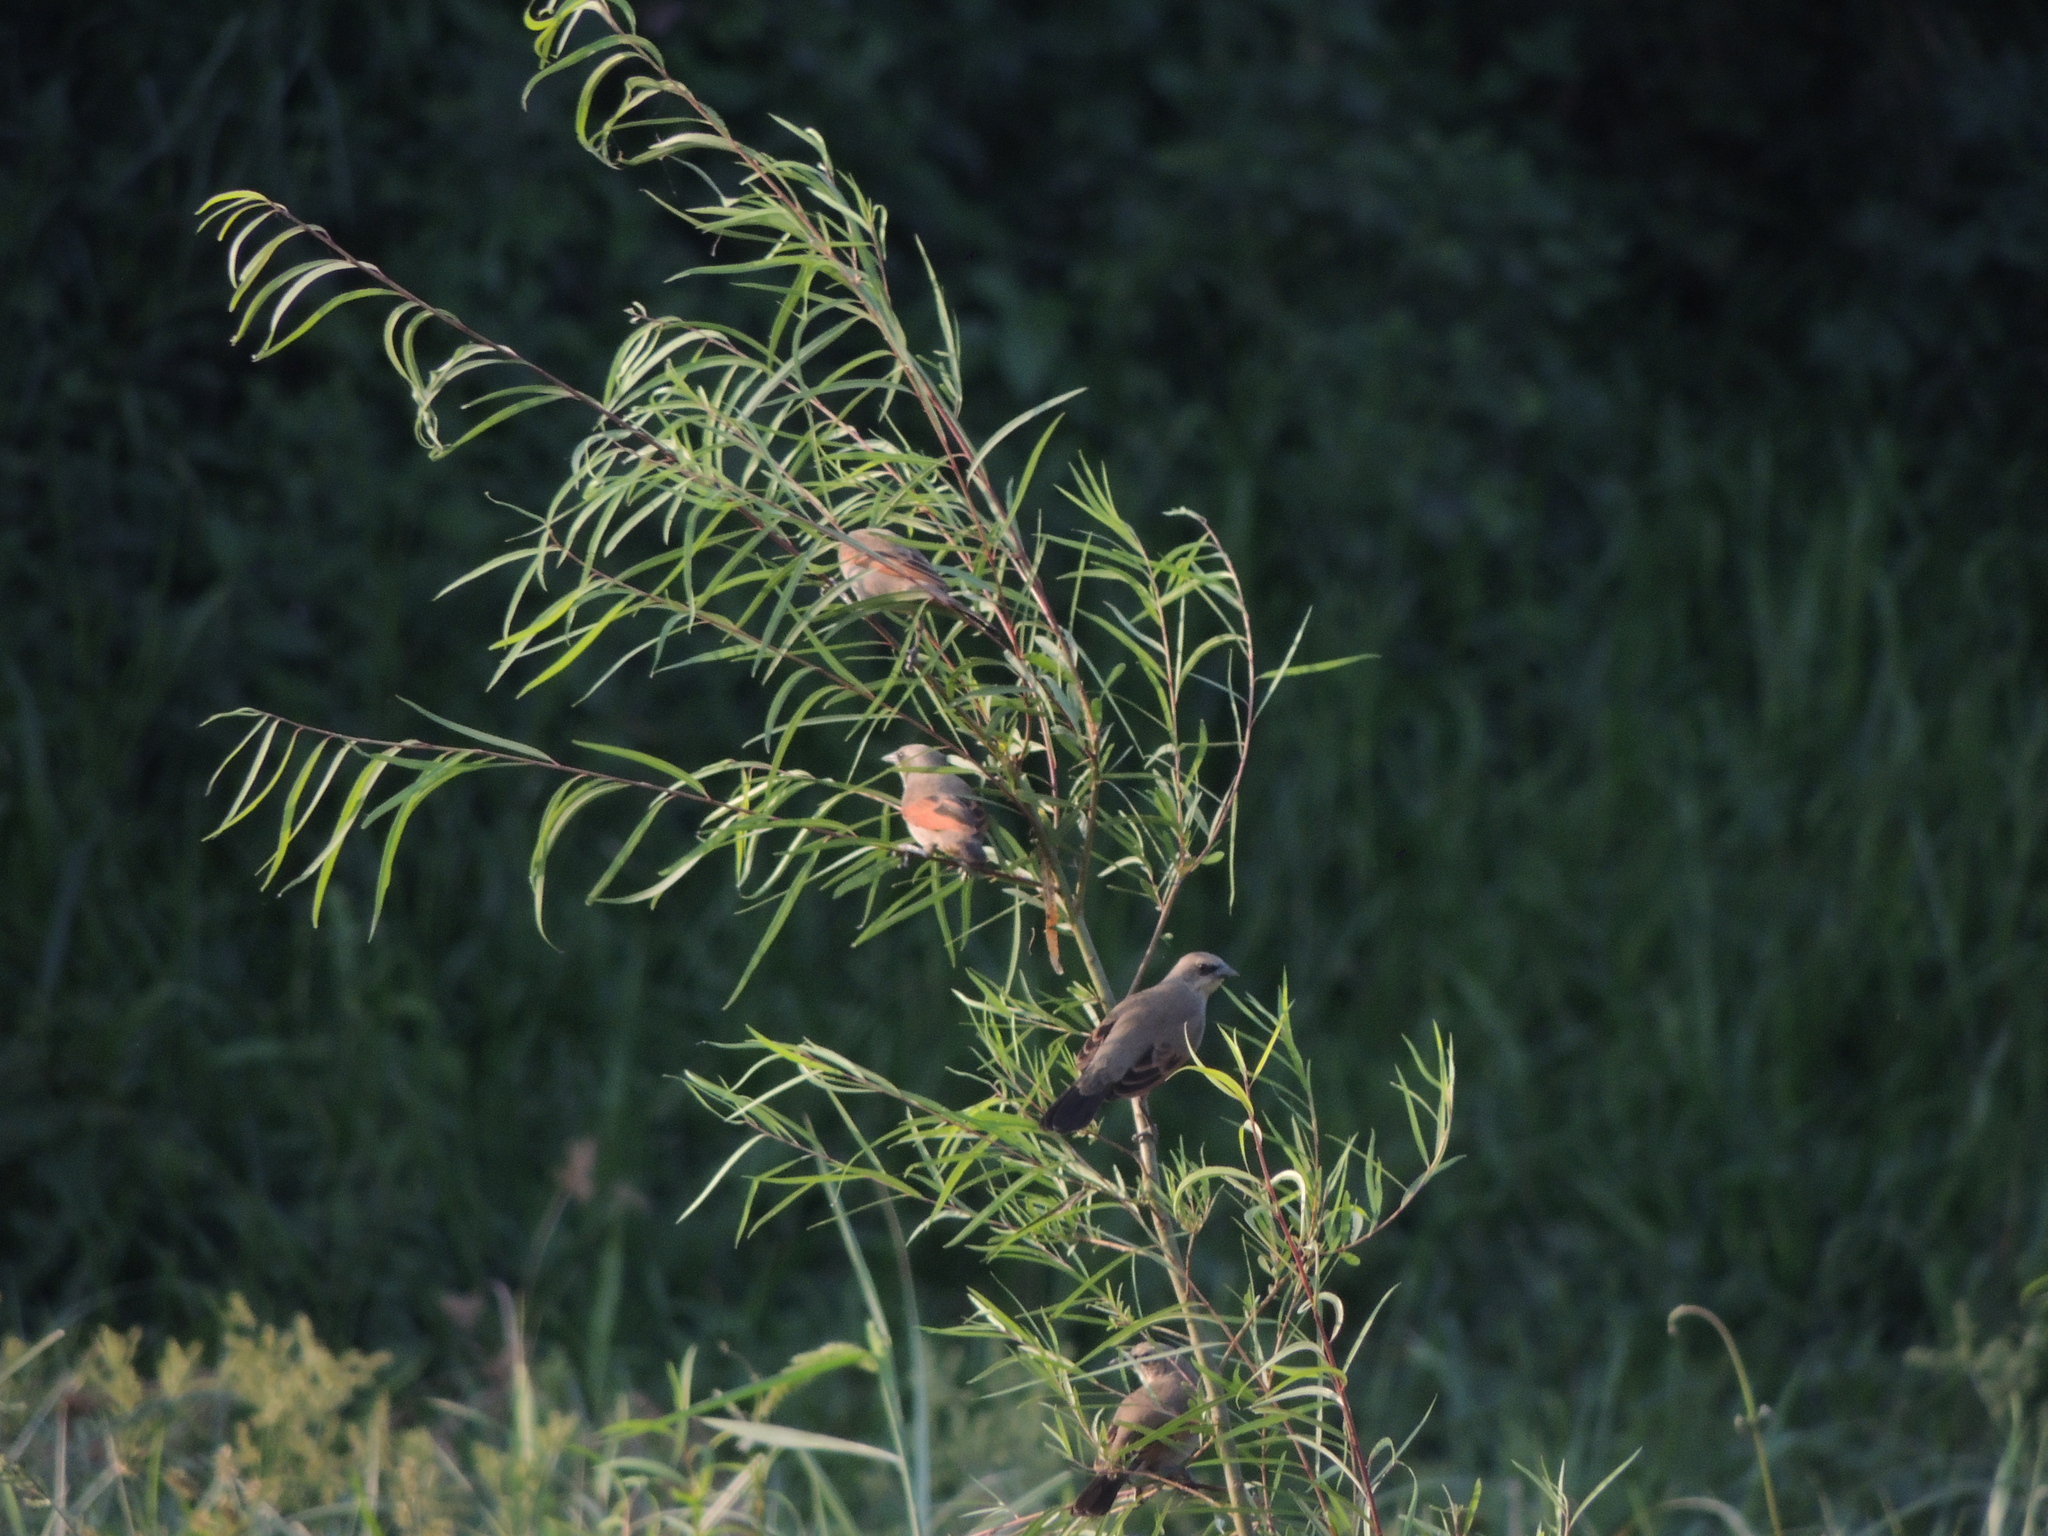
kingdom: Animalia
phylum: Chordata
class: Aves
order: Passeriformes
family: Icteridae
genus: Agelaioides
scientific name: Agelaioides badius
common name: Baywing
